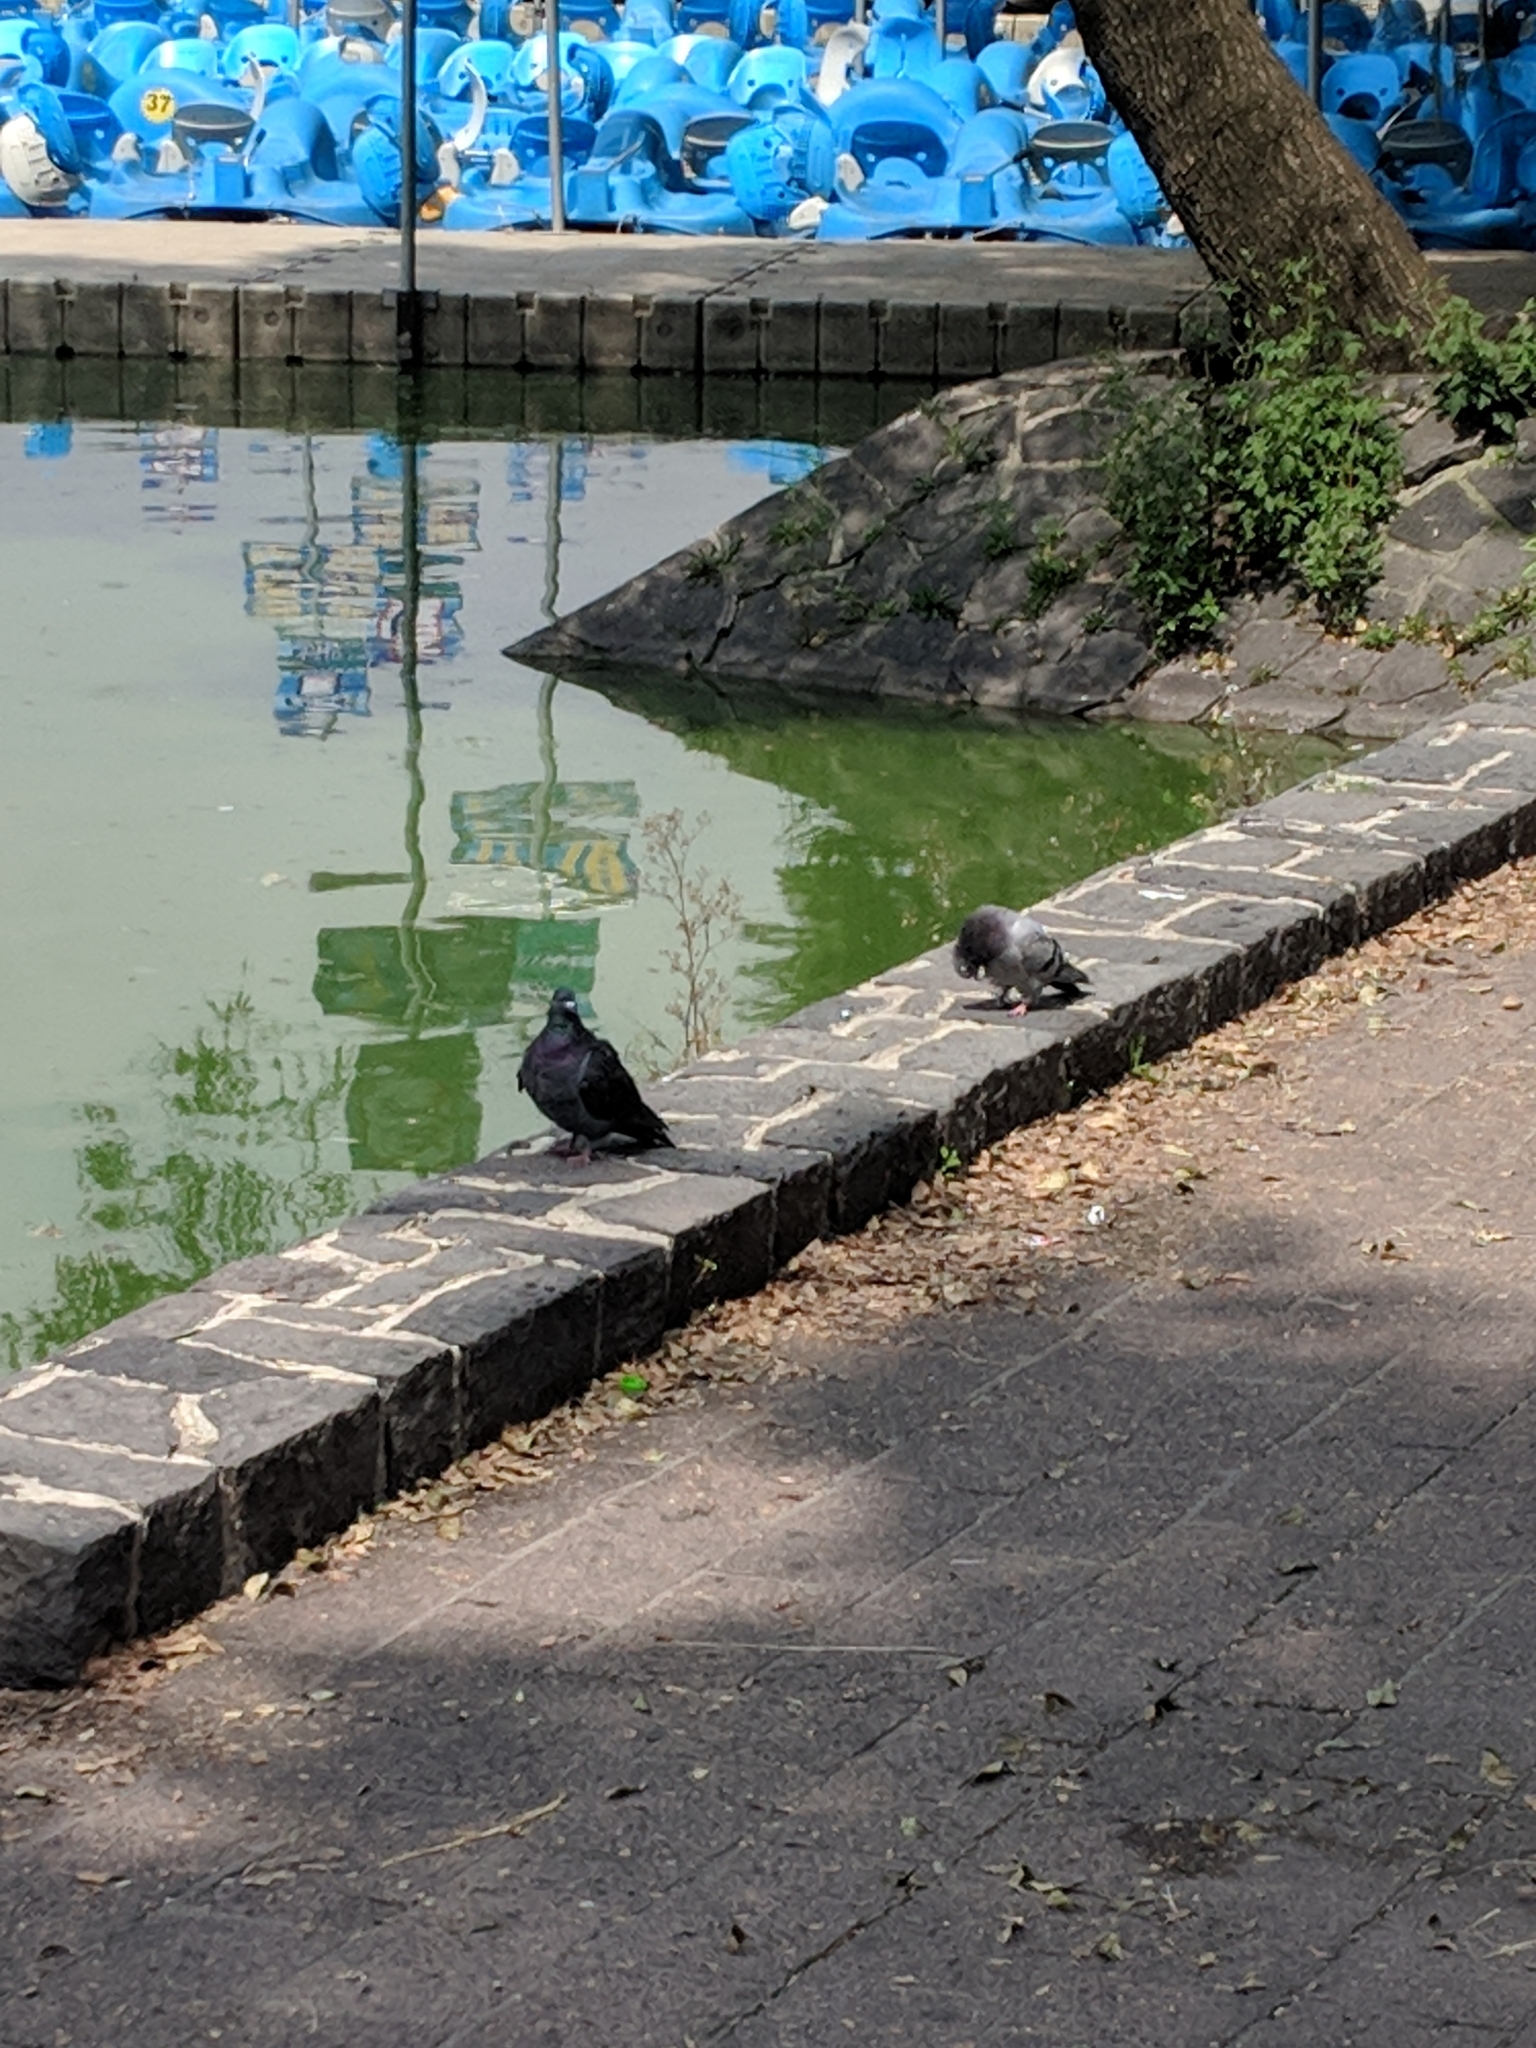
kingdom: Animalia
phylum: Chordata
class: Aves
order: Columbiformes
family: Columbidae
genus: Columba
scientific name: Columba livia
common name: Rock pigeon
